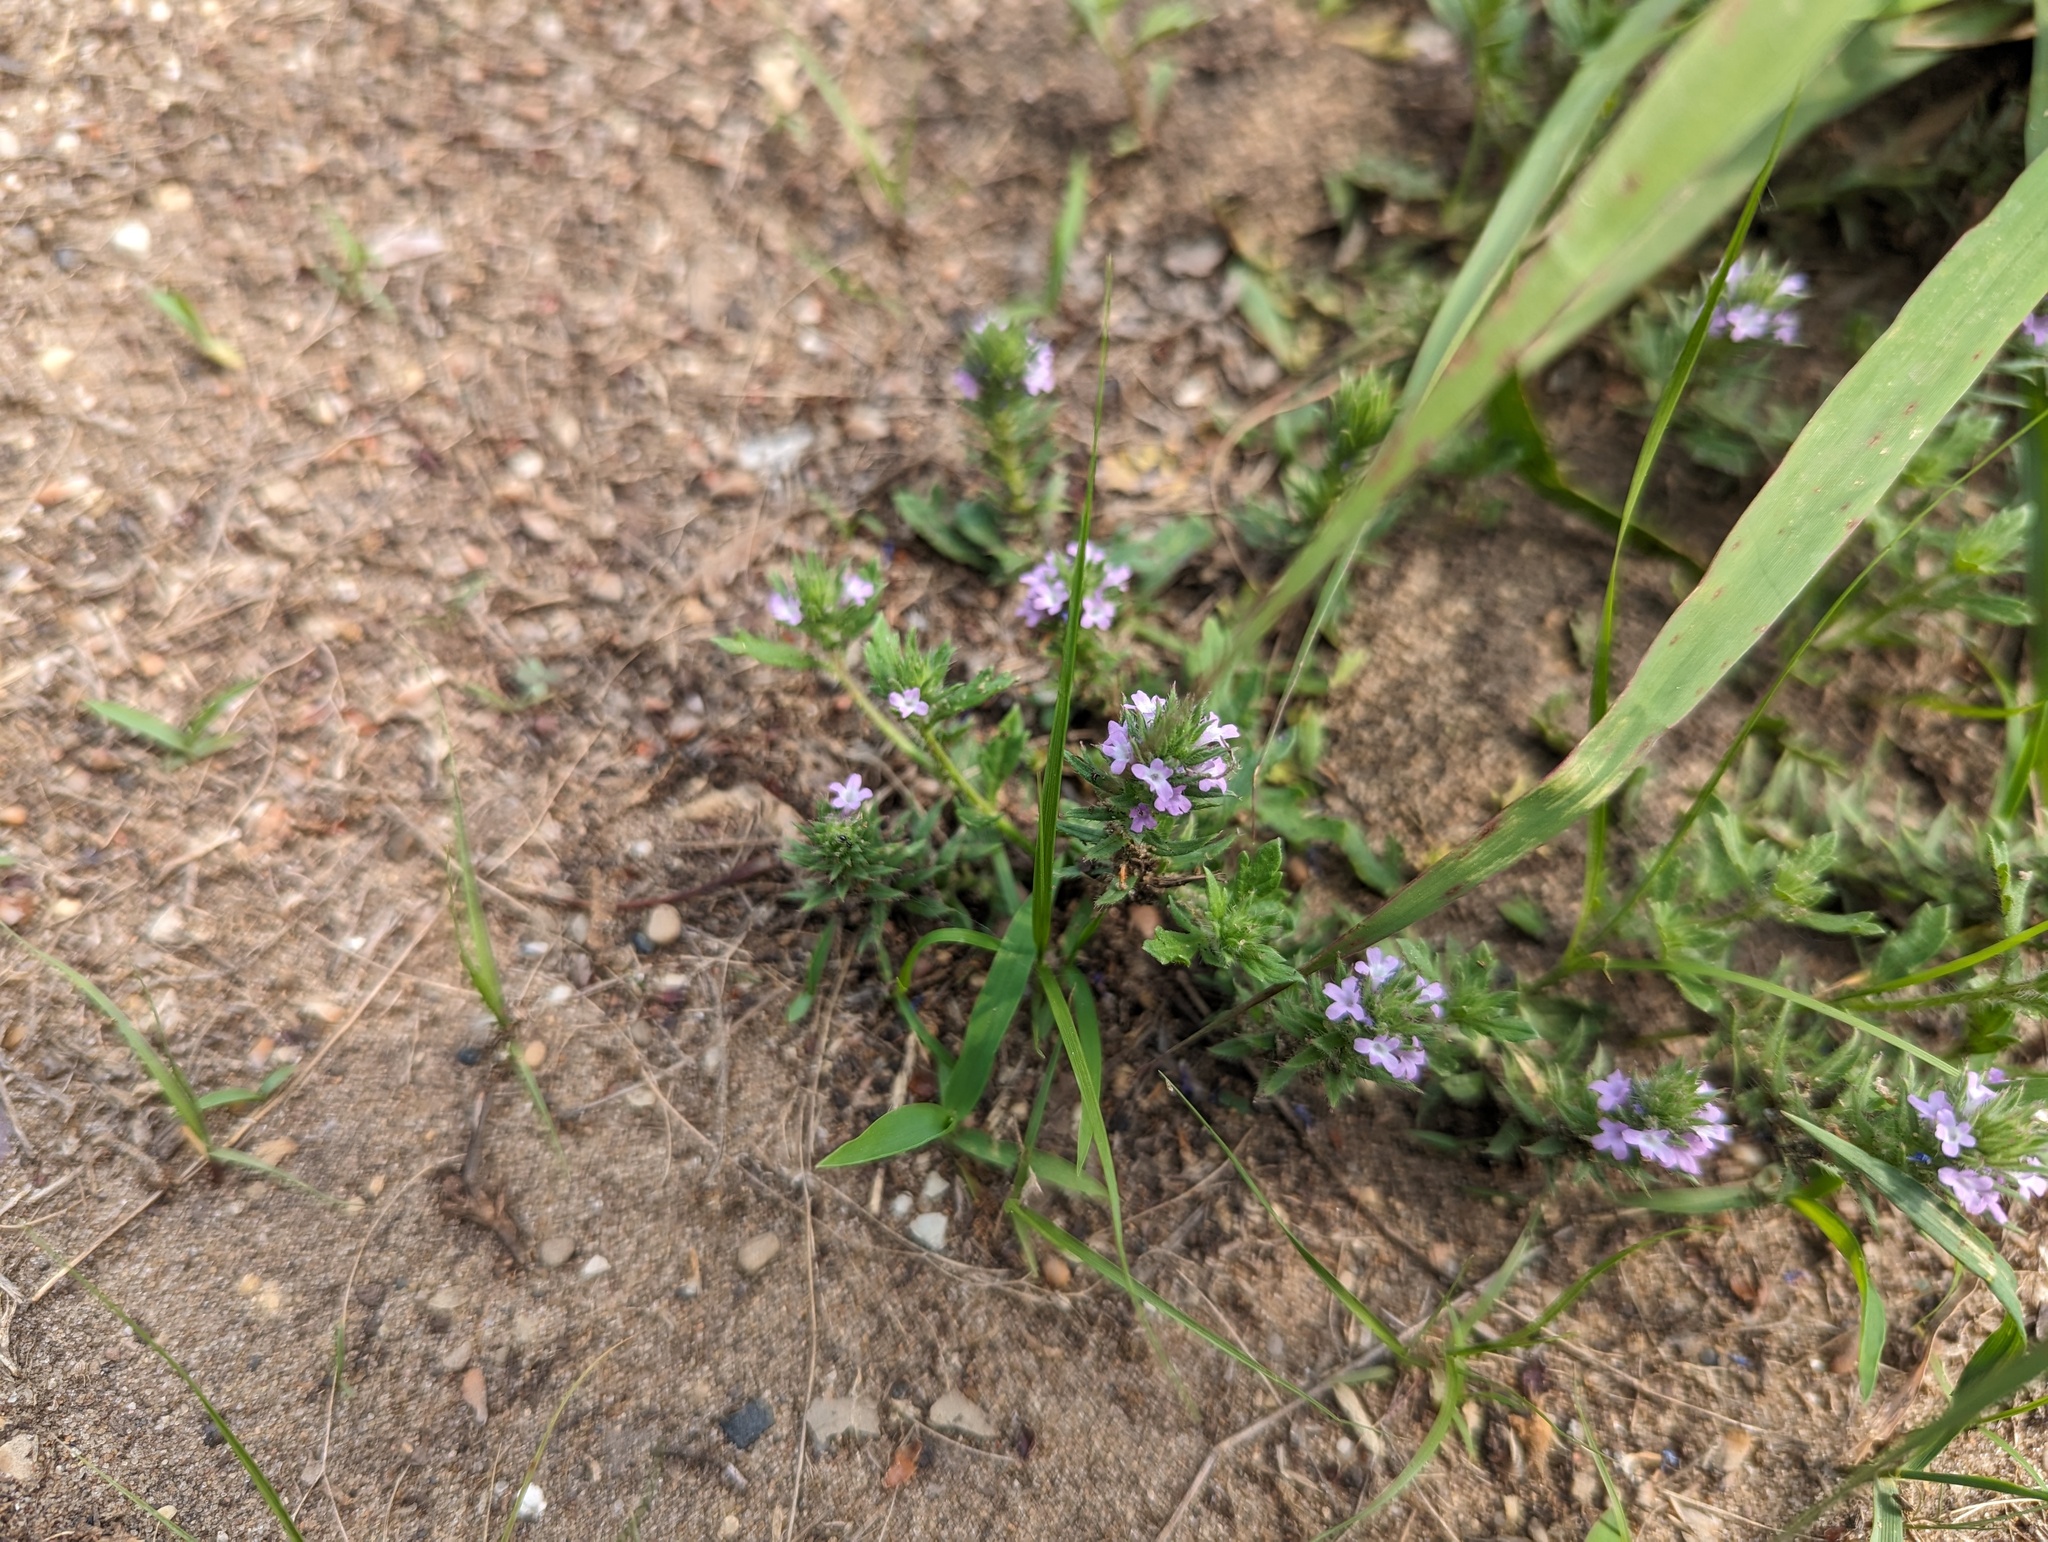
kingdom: Plantae
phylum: Tracheophyta
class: Magnoliopsida
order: Lamiales
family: Verbenaceae
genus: Verbena
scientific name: Verbena bracteata
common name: Bracted vervain
